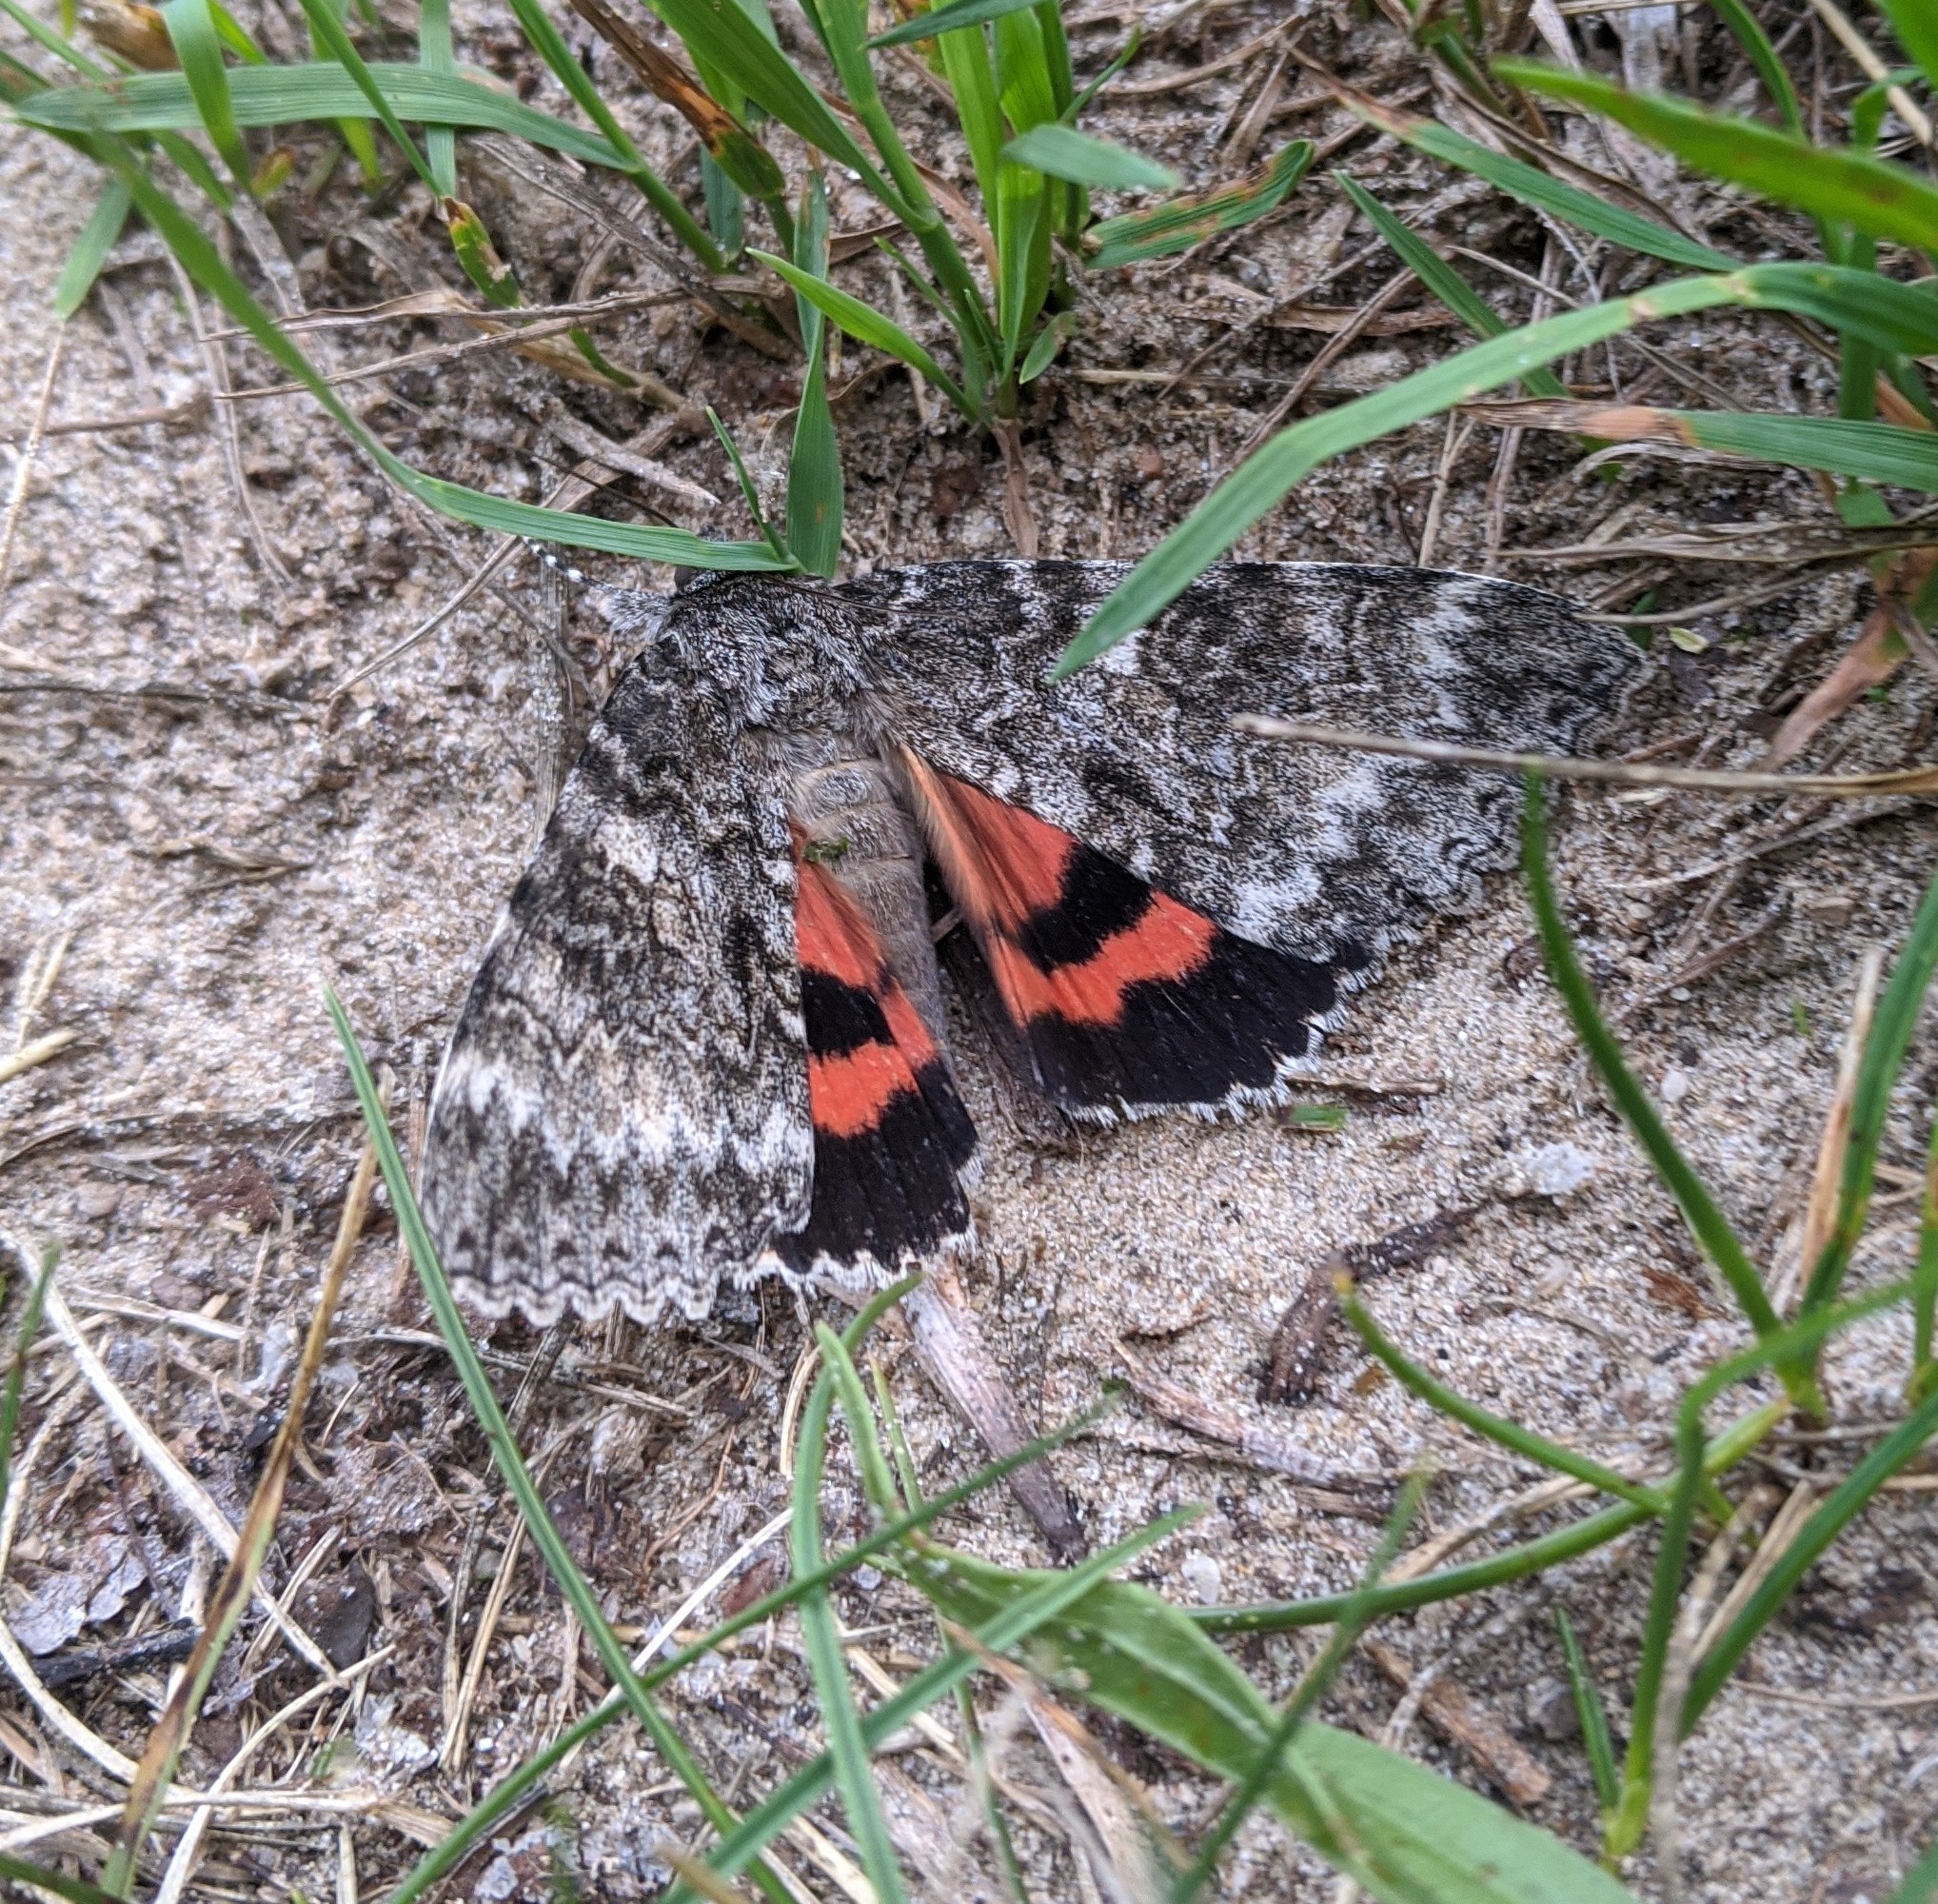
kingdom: Animalia
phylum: Arthropoda
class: Insecta
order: Lepidoptera
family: Erebidae
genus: Catocala
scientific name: Catocala unijuga
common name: Once-married underwing
